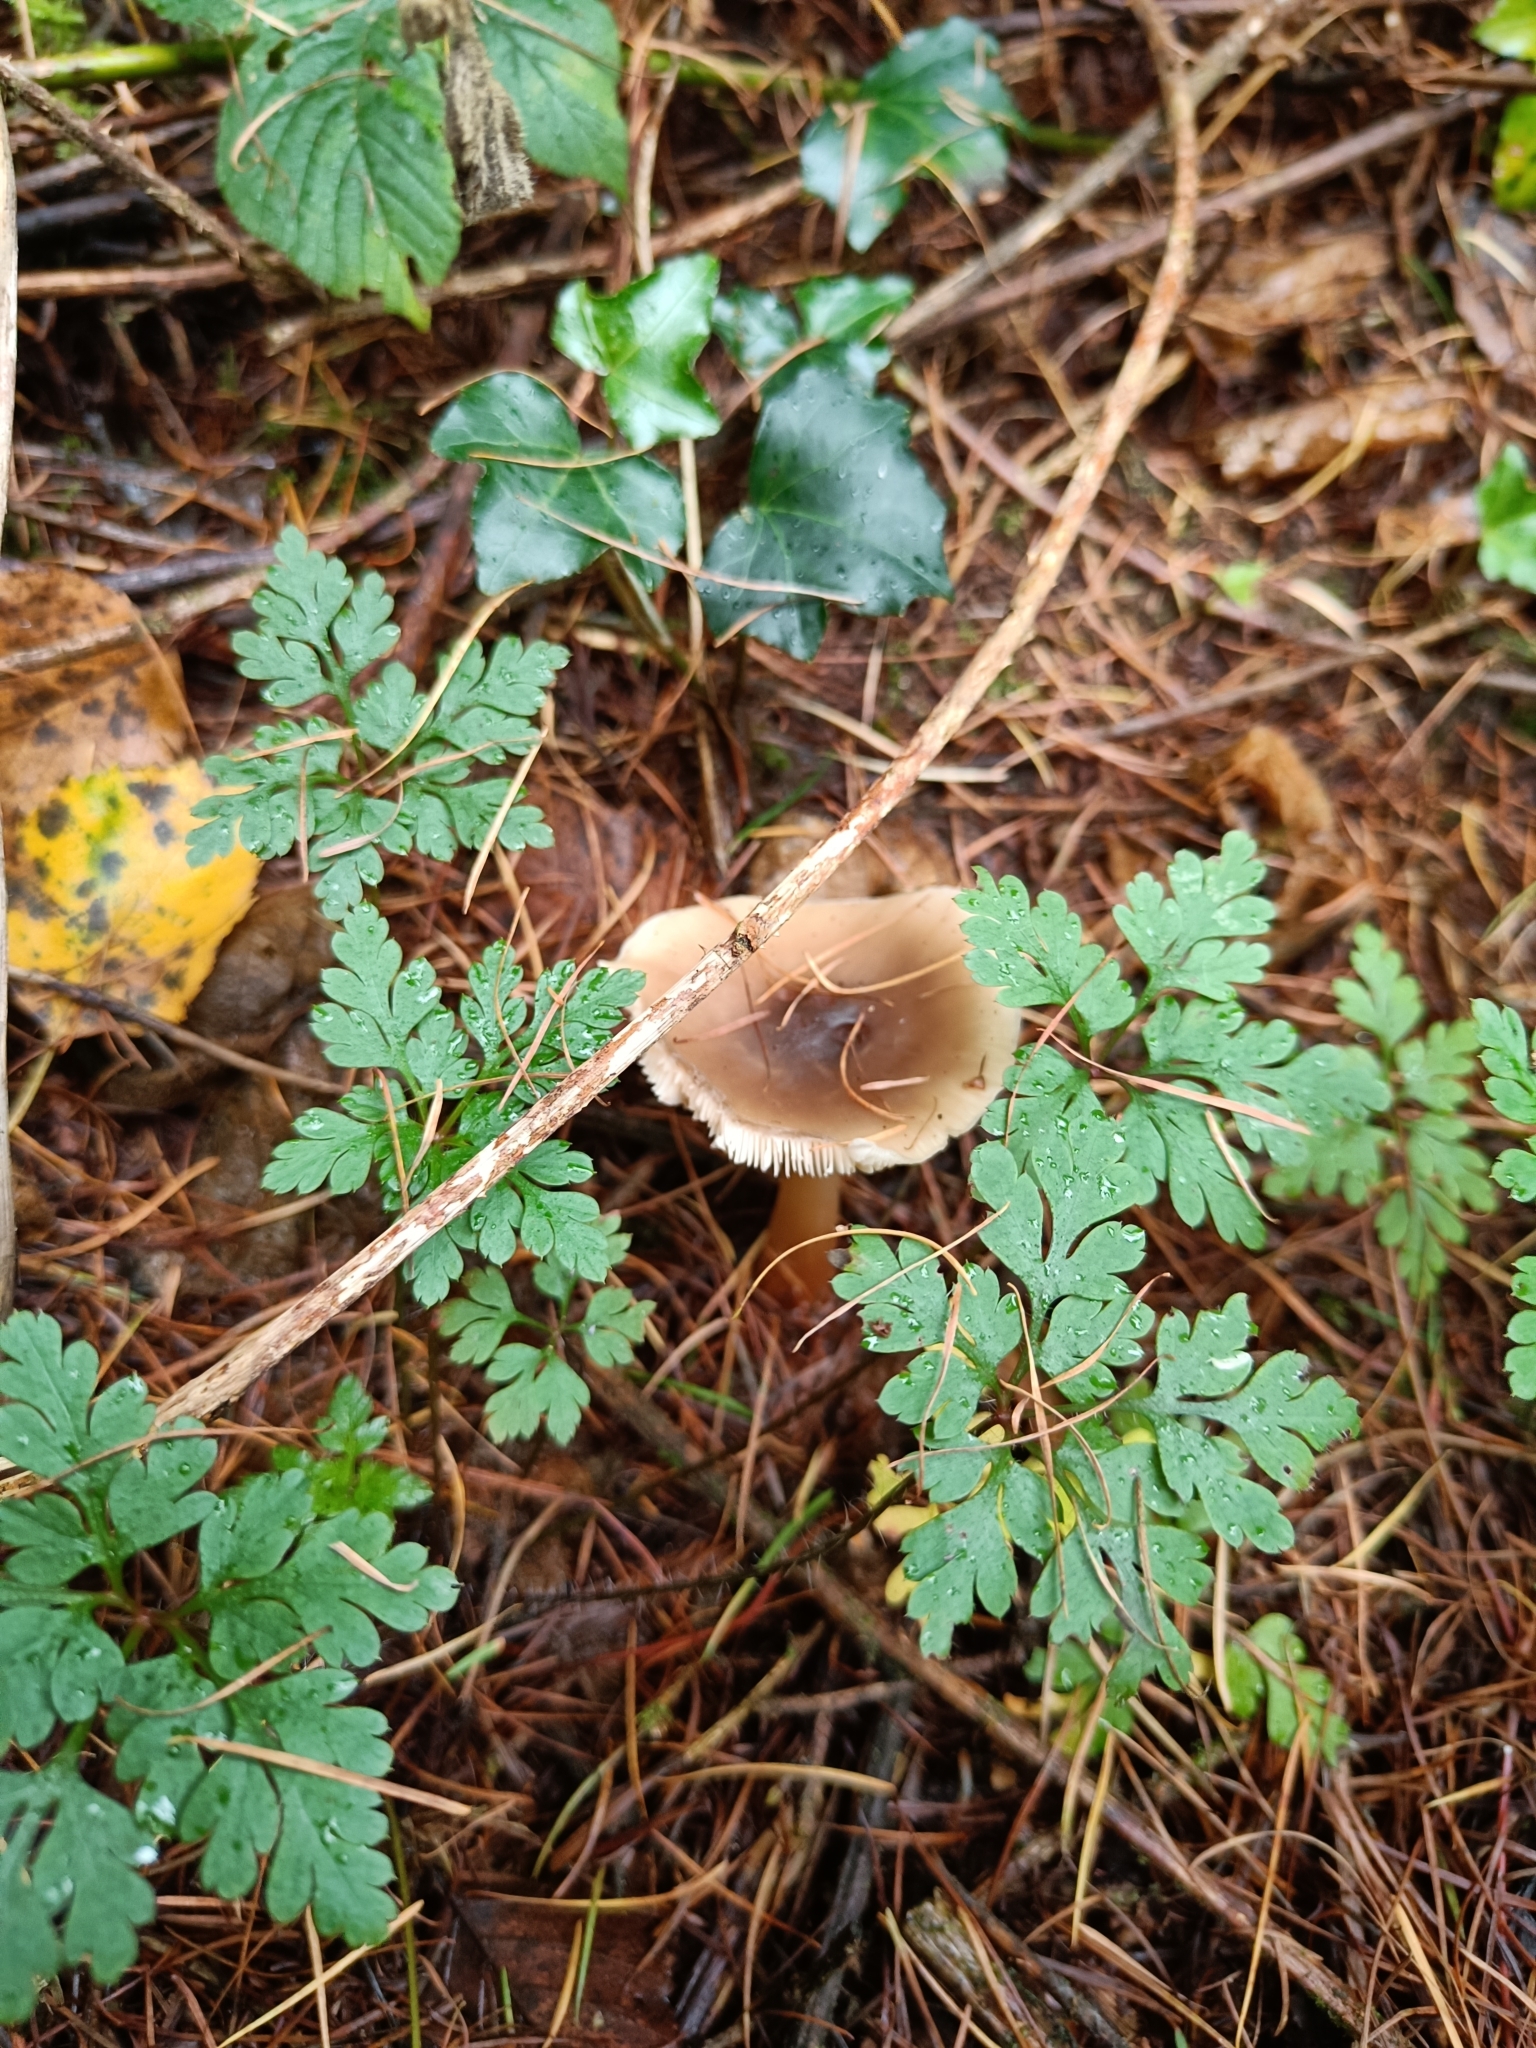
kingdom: Fungi
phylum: Basidiomycota
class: Agaricomycetes
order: Agaricales
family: Omphalotaceae
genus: Rhodocollybia
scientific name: Rhodocollybia asema
